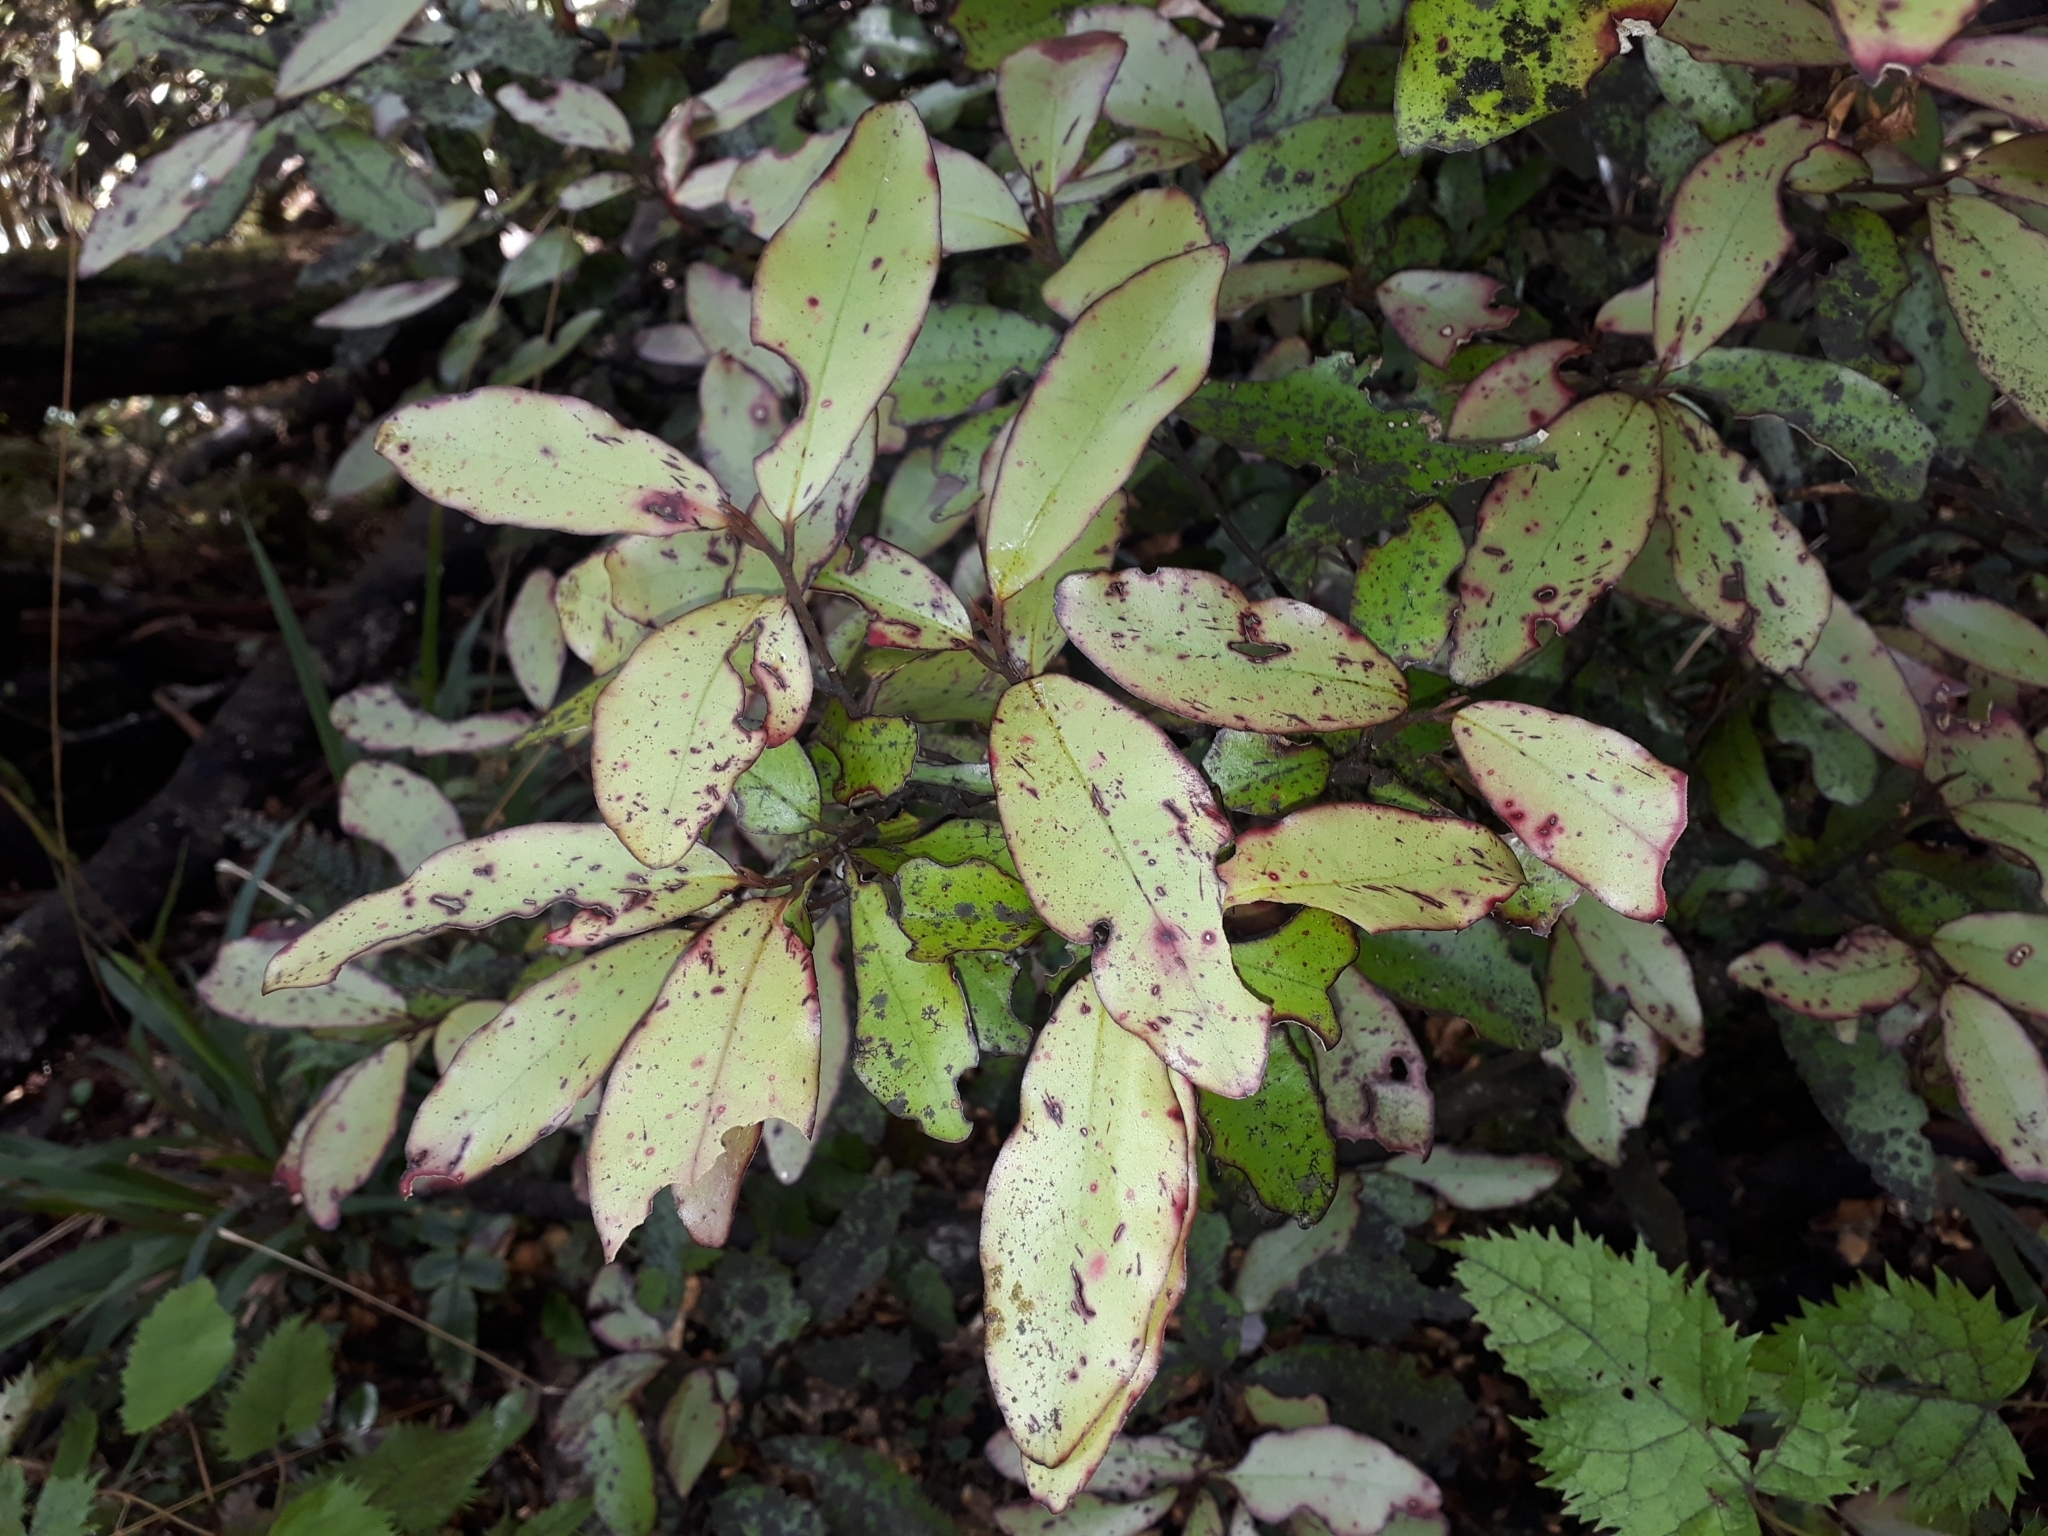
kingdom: Plantae
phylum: Tracheophyta
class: Magnoliopsida
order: Canellales
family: Winteraceae
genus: Pseudowintera
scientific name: Pseudowintera colorata
